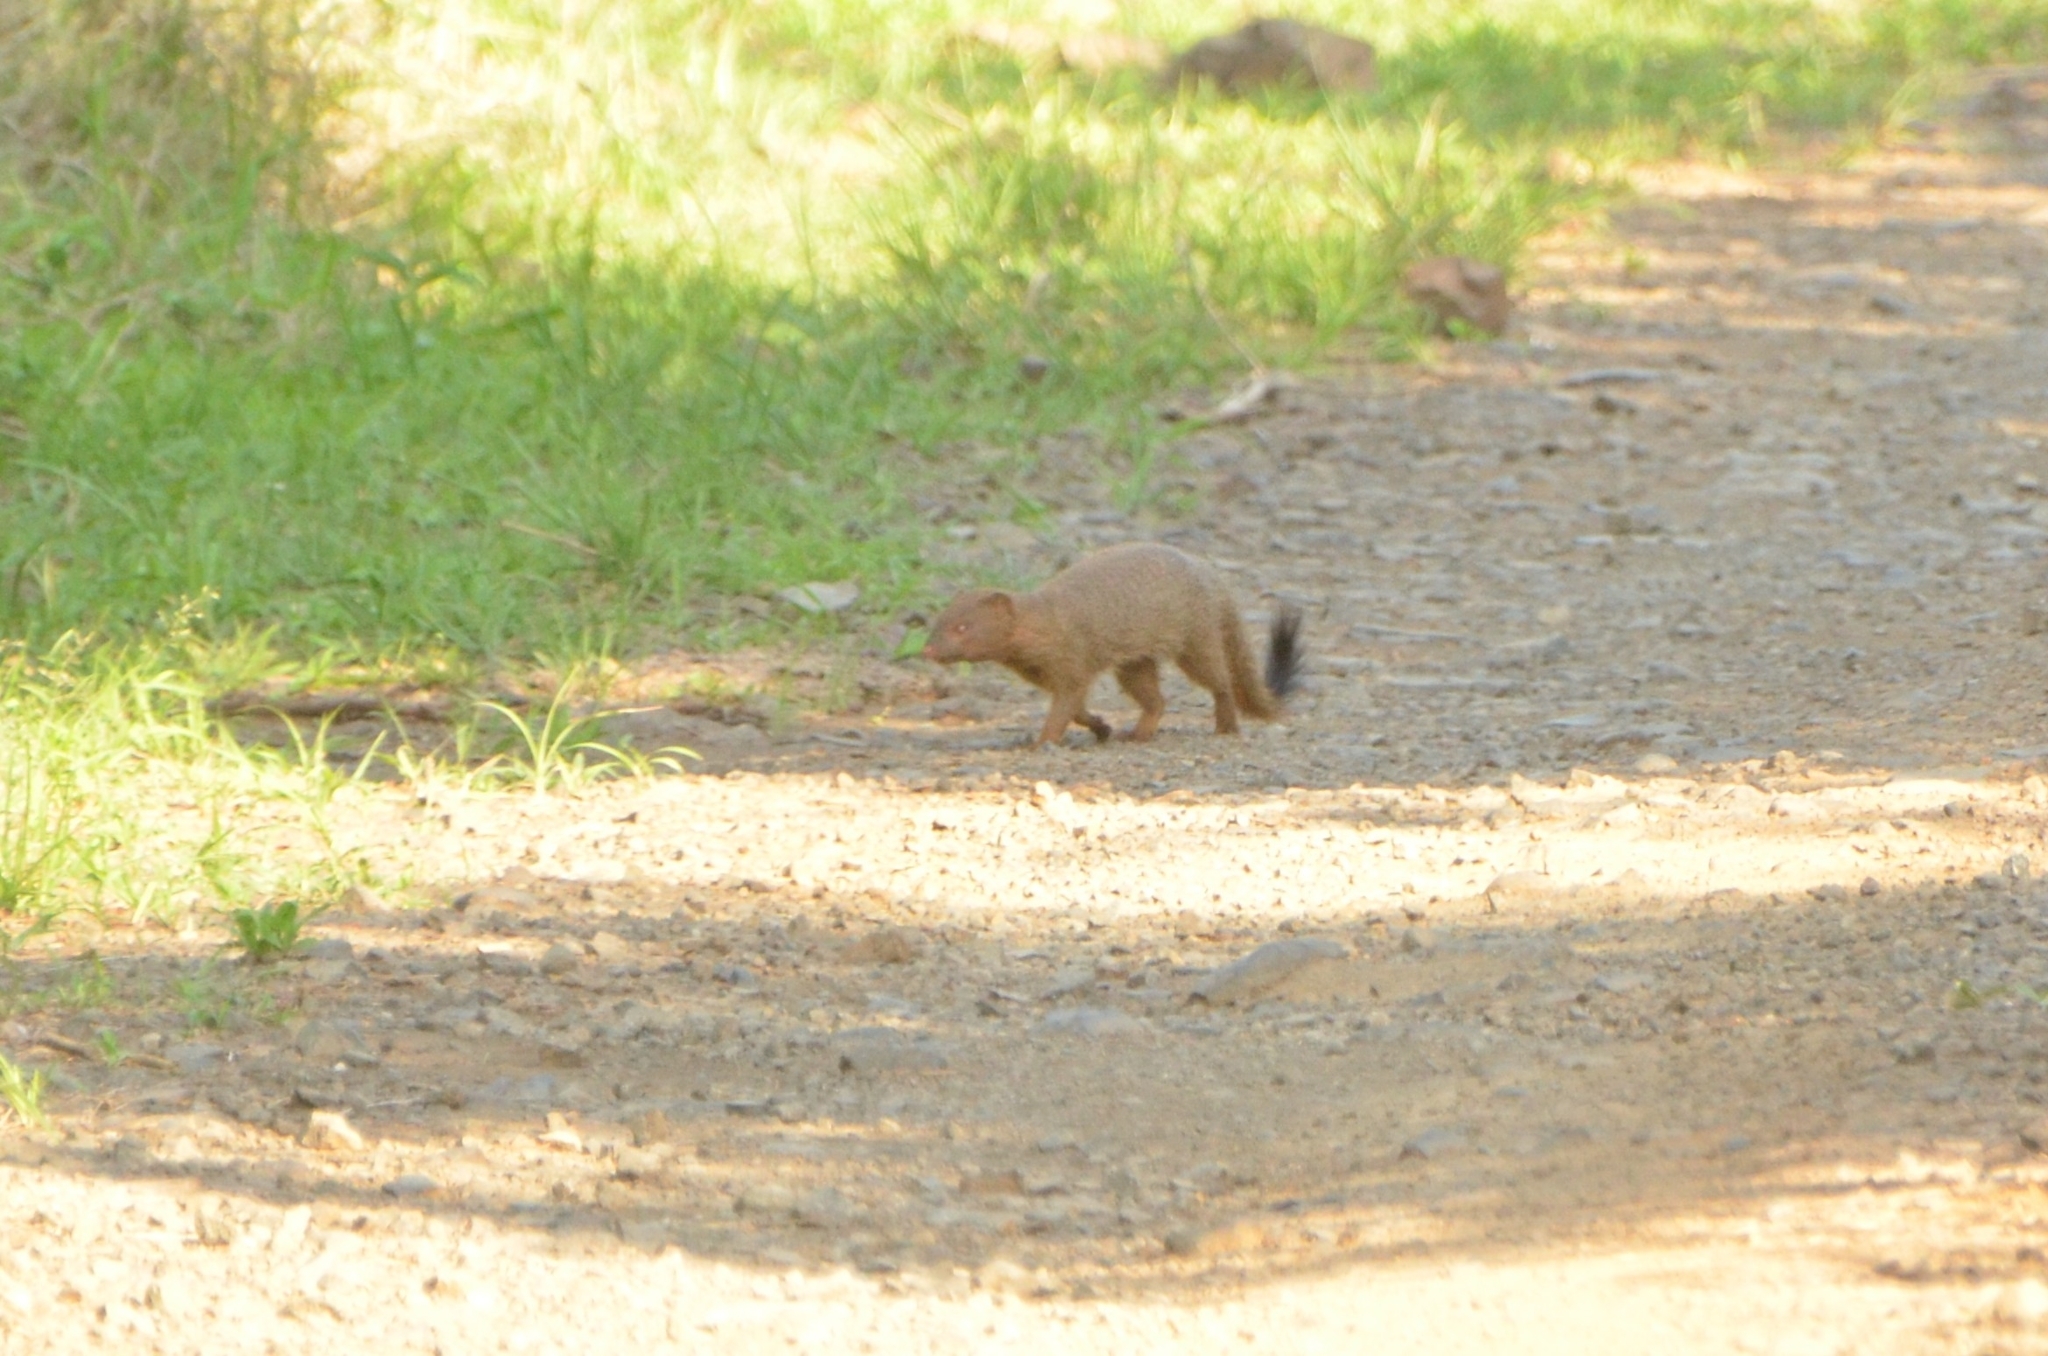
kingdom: Animalia
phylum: Chordata
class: Mammalia
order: Carnivora
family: Herpestidae
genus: Galerella
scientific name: Galerella sanguinea
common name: Slender mongoose
